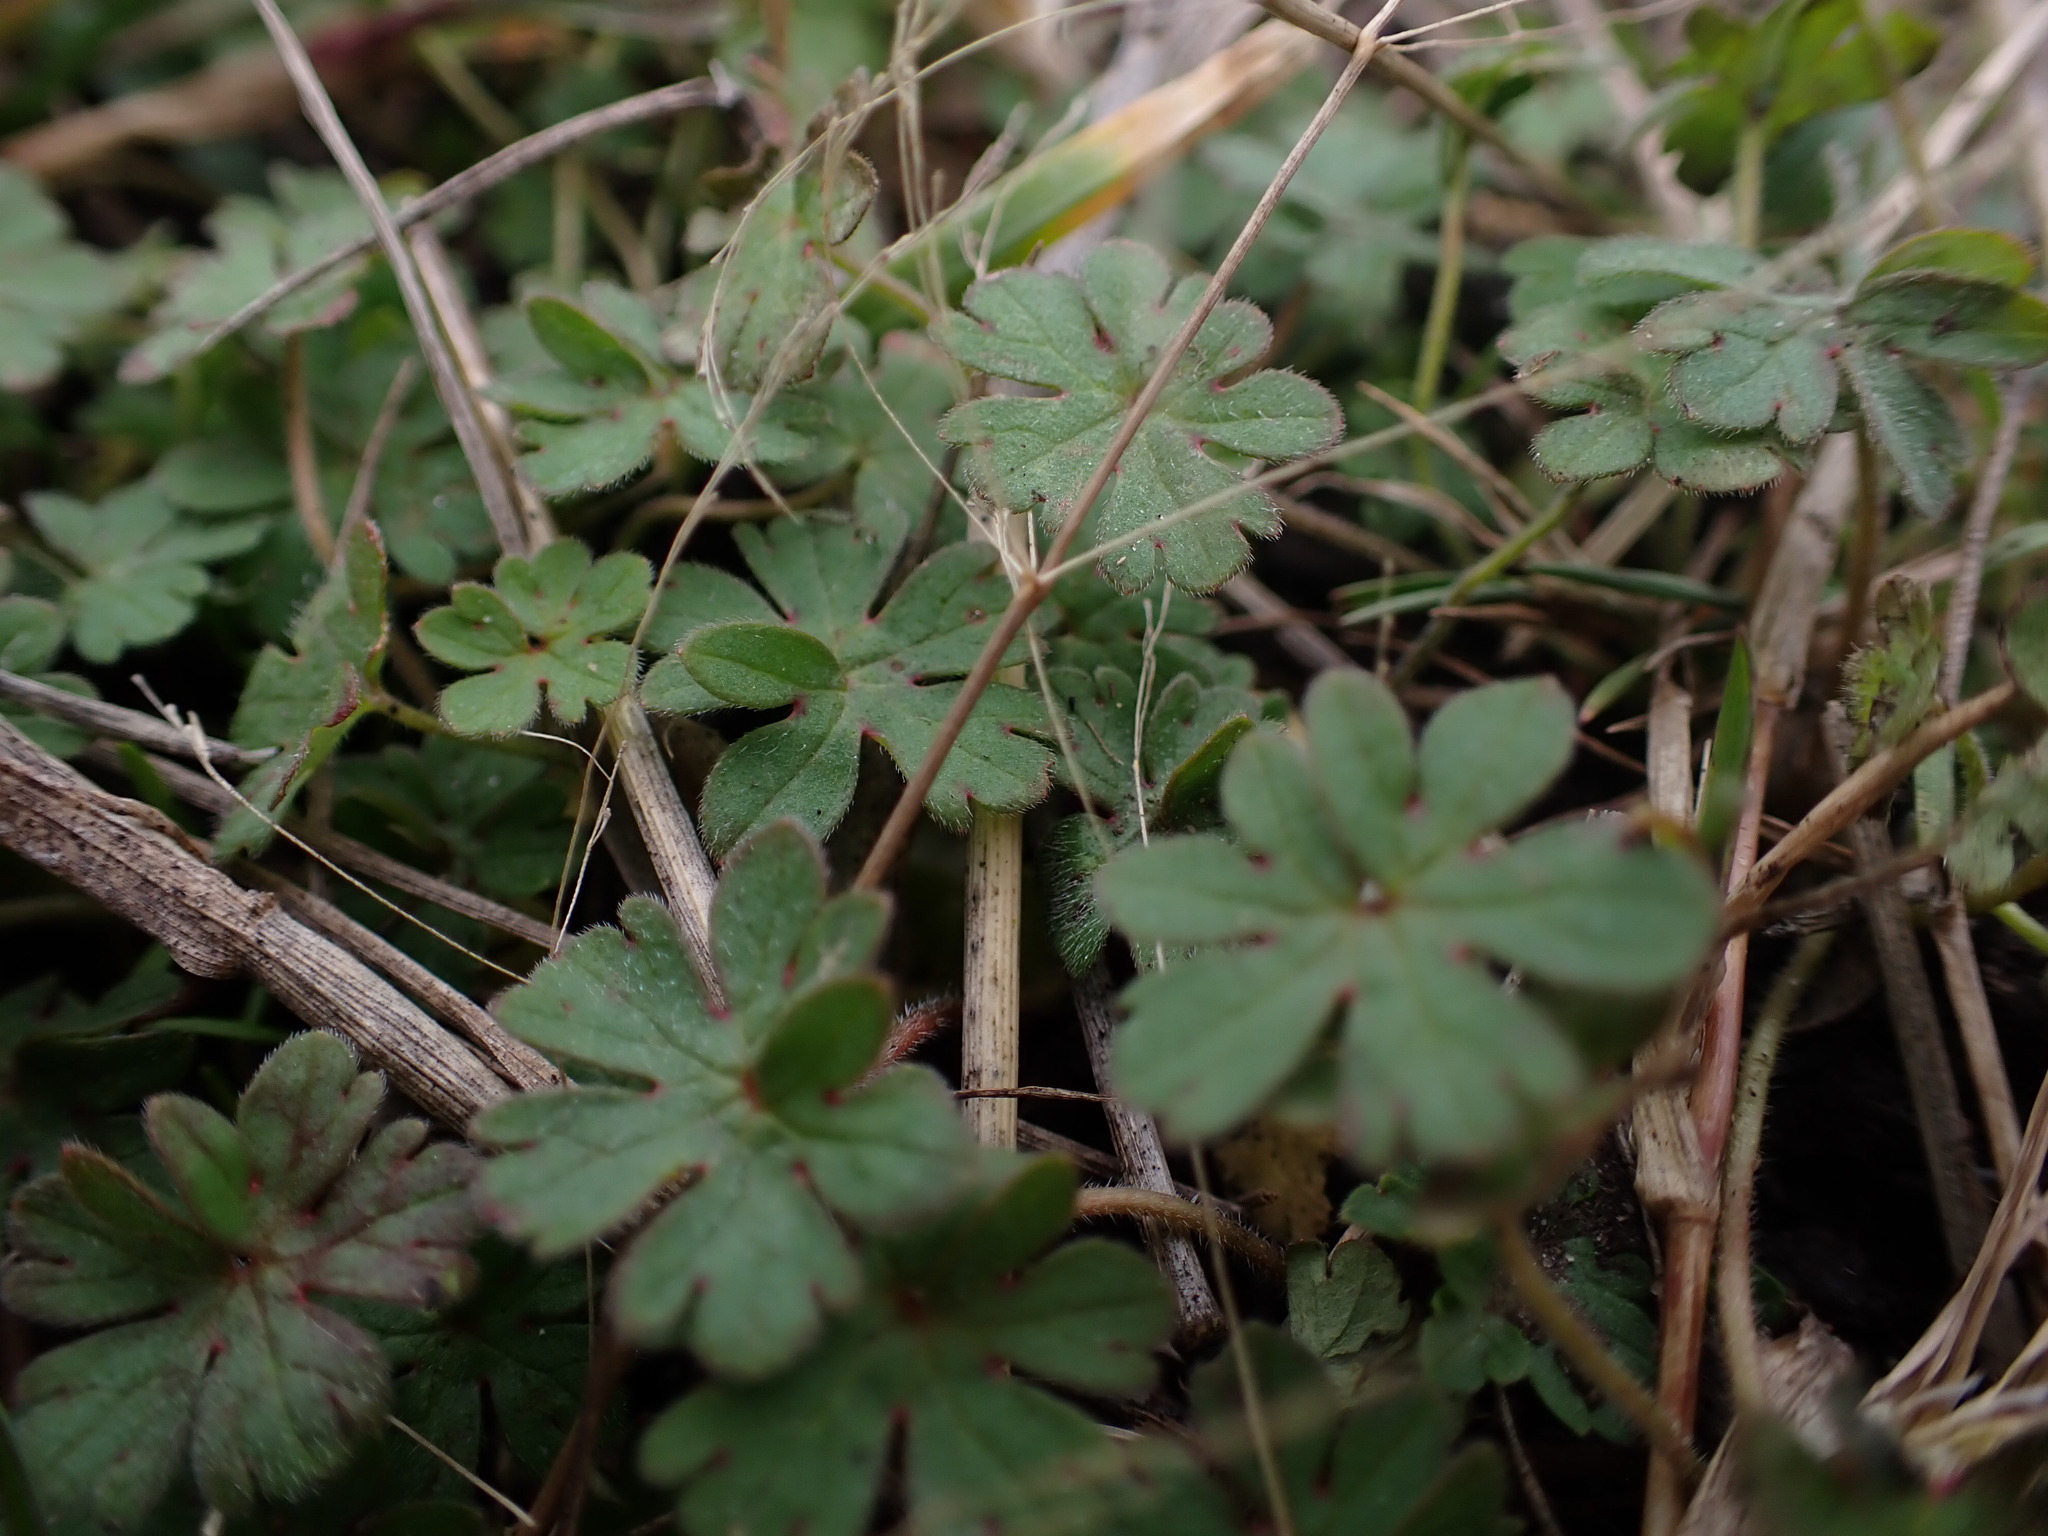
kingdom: Plantae
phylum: Tracheophyta
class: Magnoliopsida
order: Geraniales
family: Geraniaceae
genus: Geranium
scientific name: Geranium molle
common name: Dove's-foot crane's-bill
